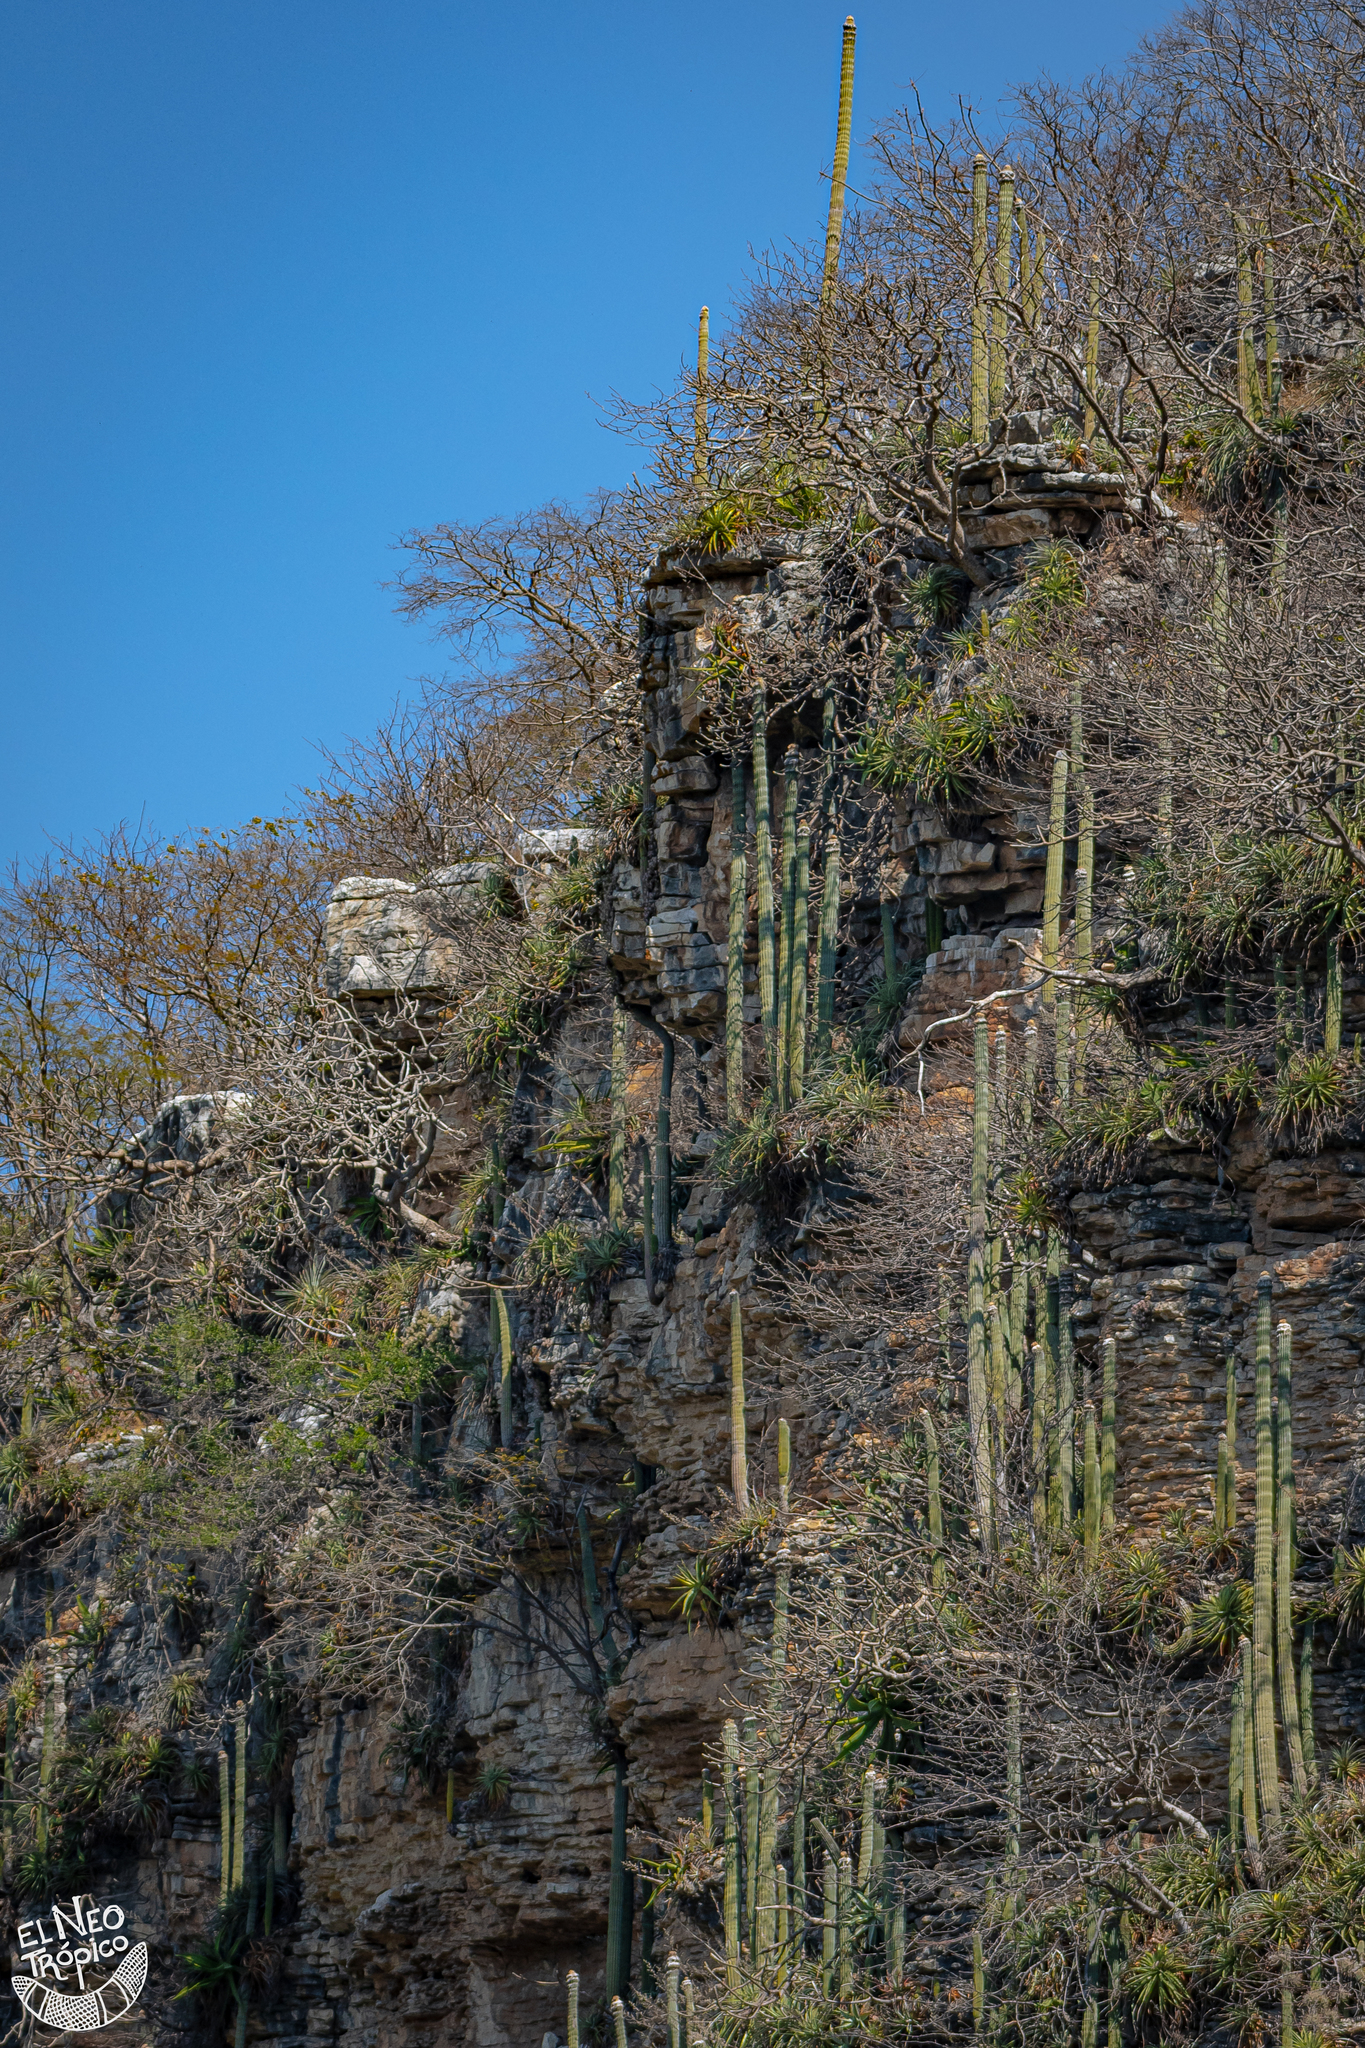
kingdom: Plantae
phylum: Tracheophyta
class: Magnoliopsida
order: Caryophyllales
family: Cactaceae
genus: Cephalocereus
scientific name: Cephalocereus apicicephalium
